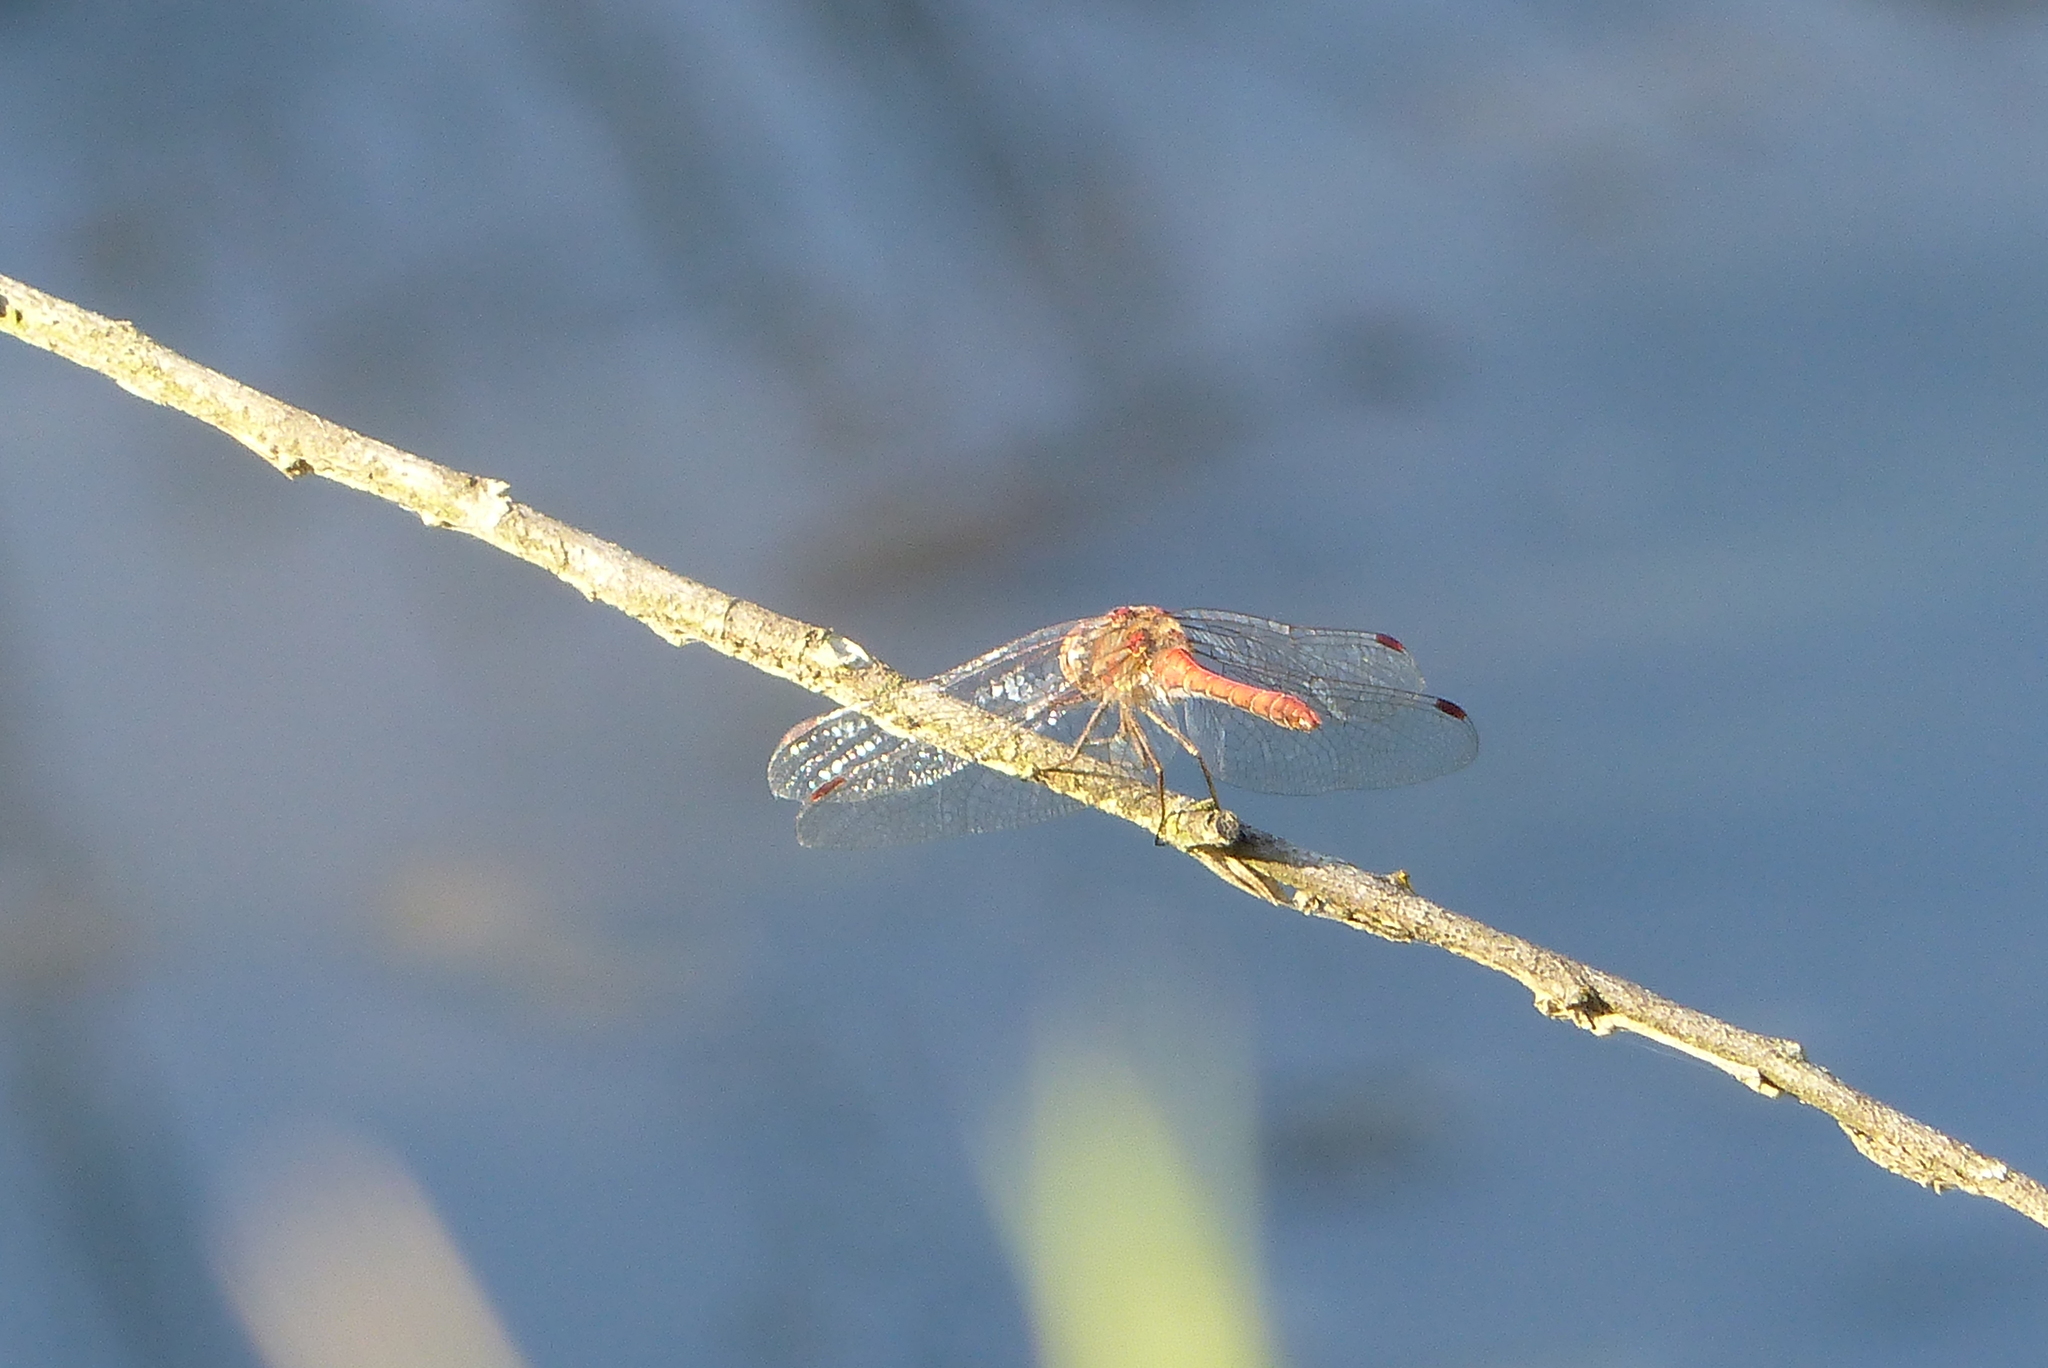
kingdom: Animalia
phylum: Arthropoda
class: Insecta
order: Odonata
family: Libellulidae
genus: Sympetrum
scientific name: Sympetrum striolatum
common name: Common darter
